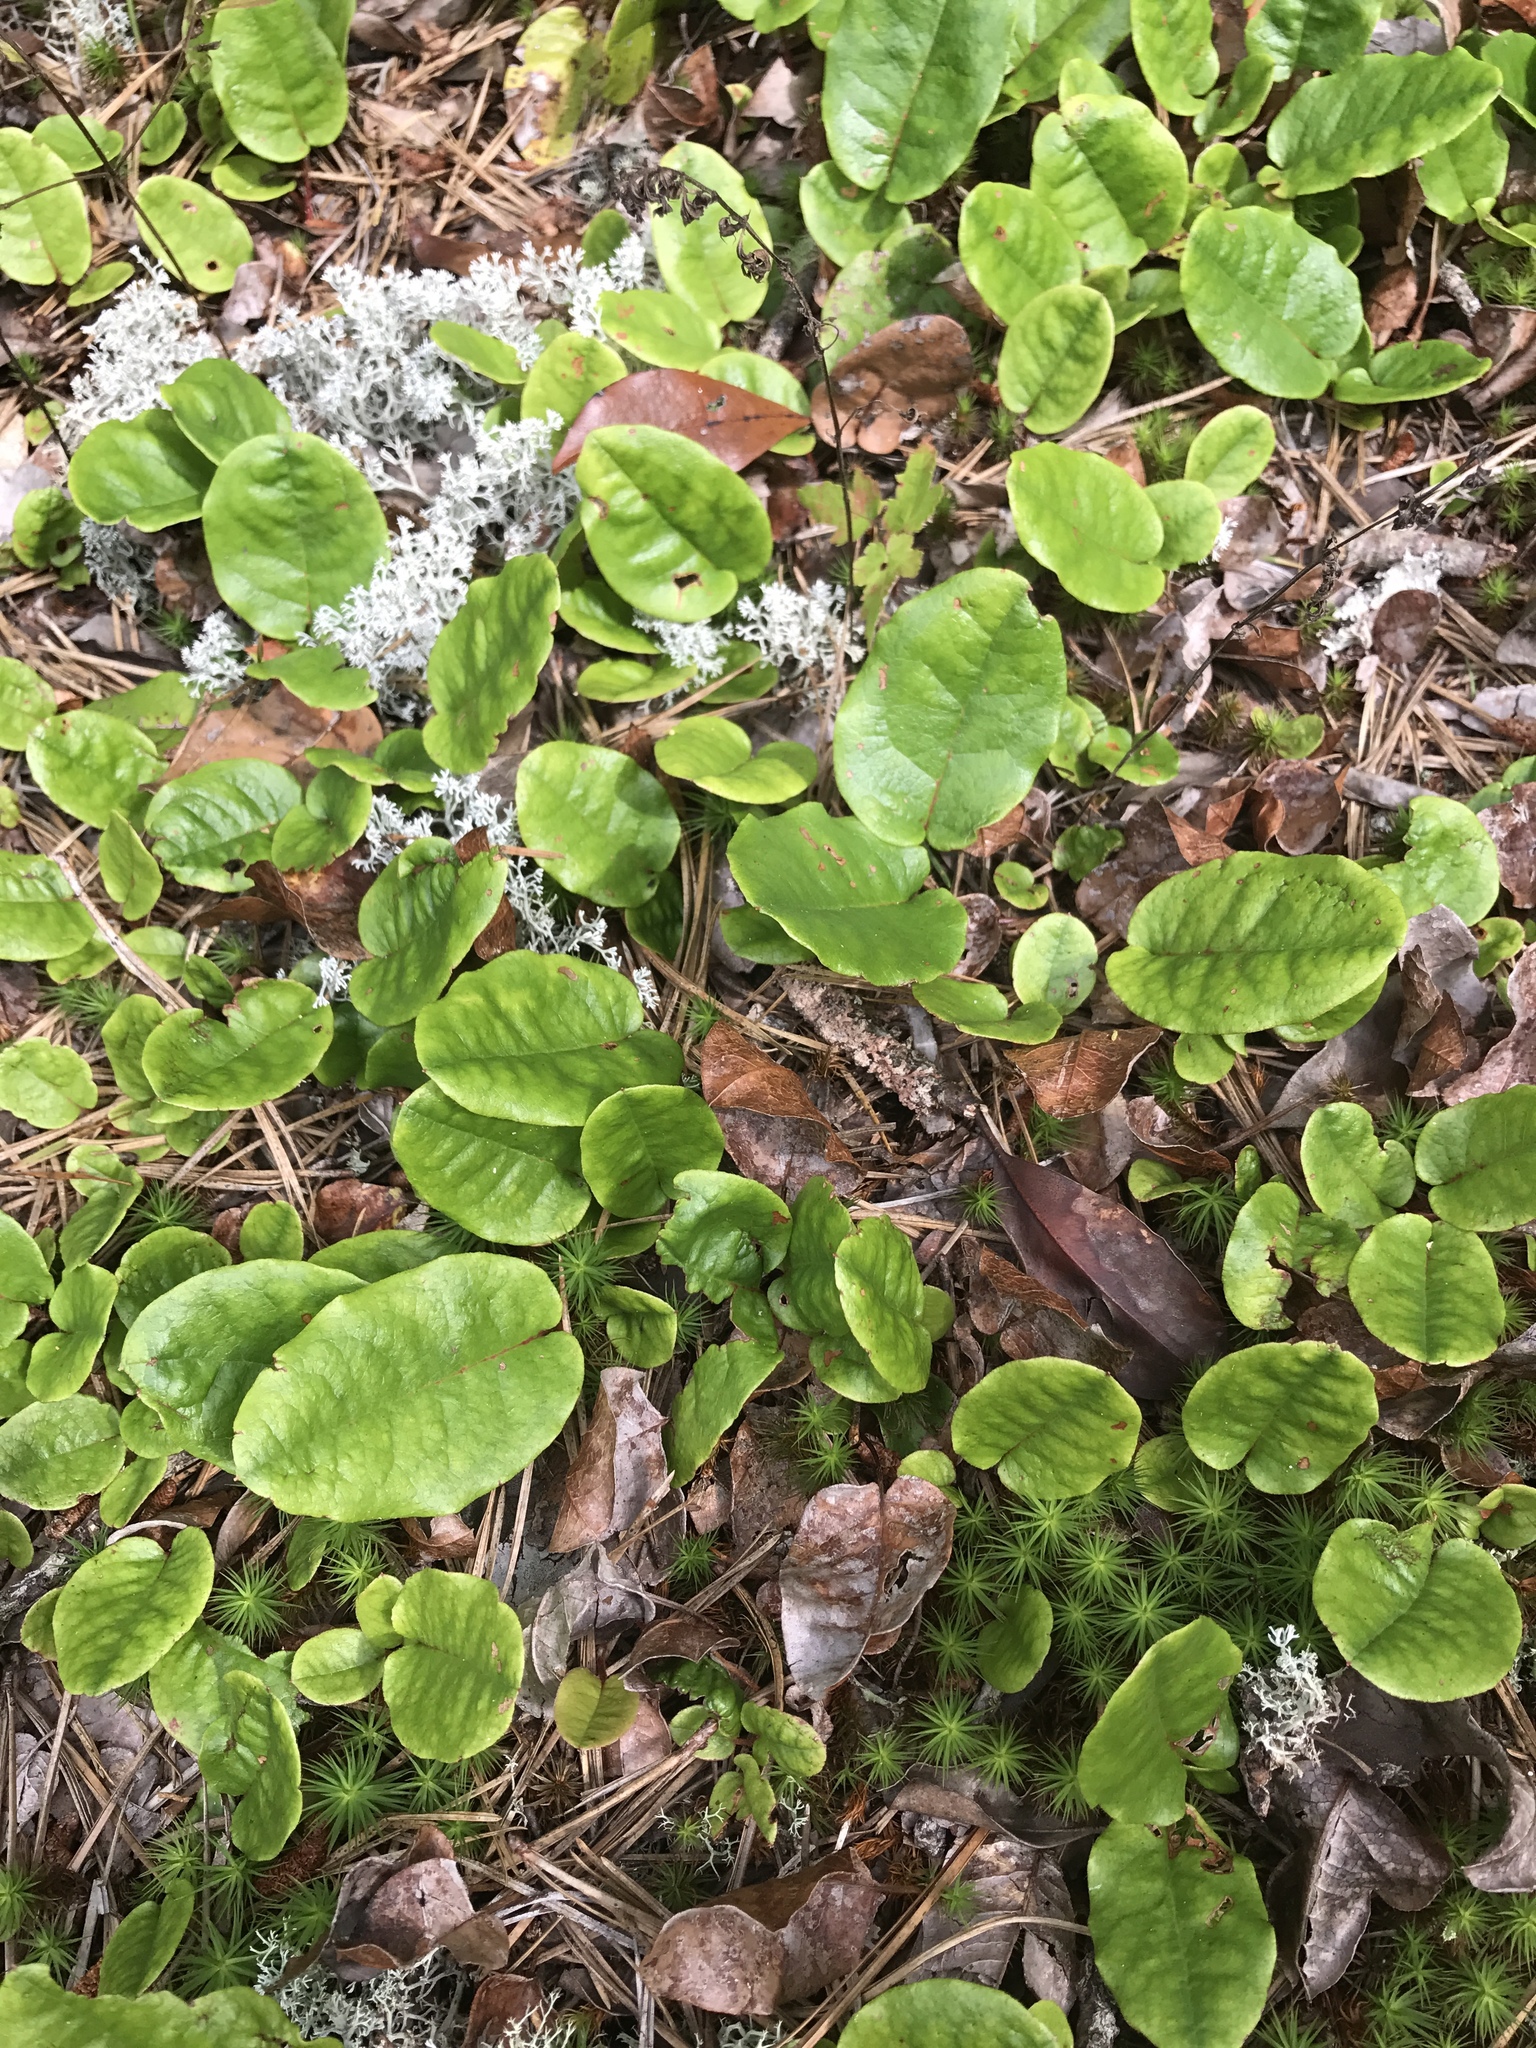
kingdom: Plantae
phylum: Tracheophyta
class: Magnoliopsida
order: Ericales
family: Ericaceae
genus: Epigaea
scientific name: Epigaea repens
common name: Gravelroot
